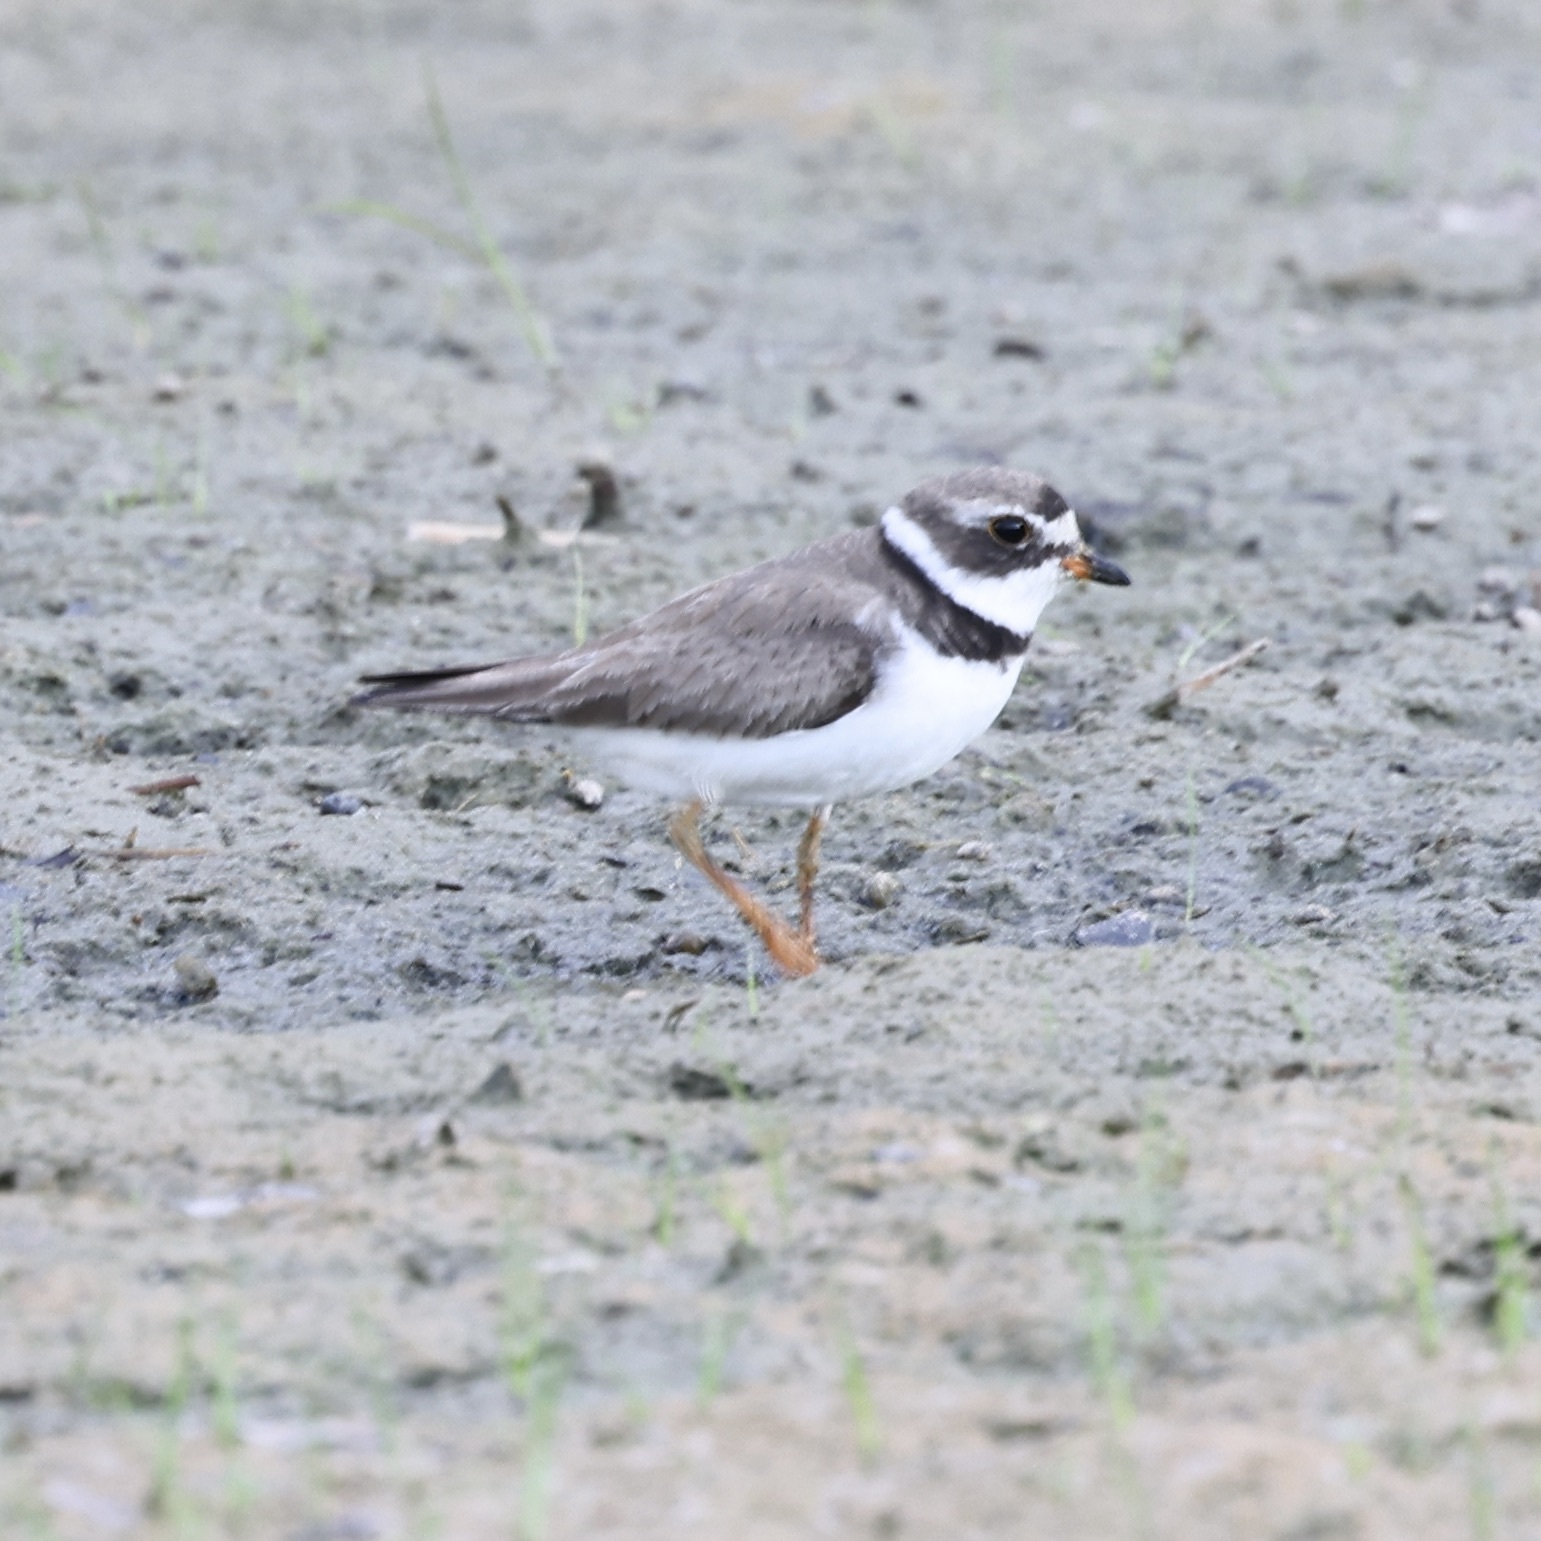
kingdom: Animalia
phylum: Chordata
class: Aves
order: Charadriiformes
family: Charadriidae
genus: Charadrius
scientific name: Charadrius semipalmatus
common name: Semipalmated plover
